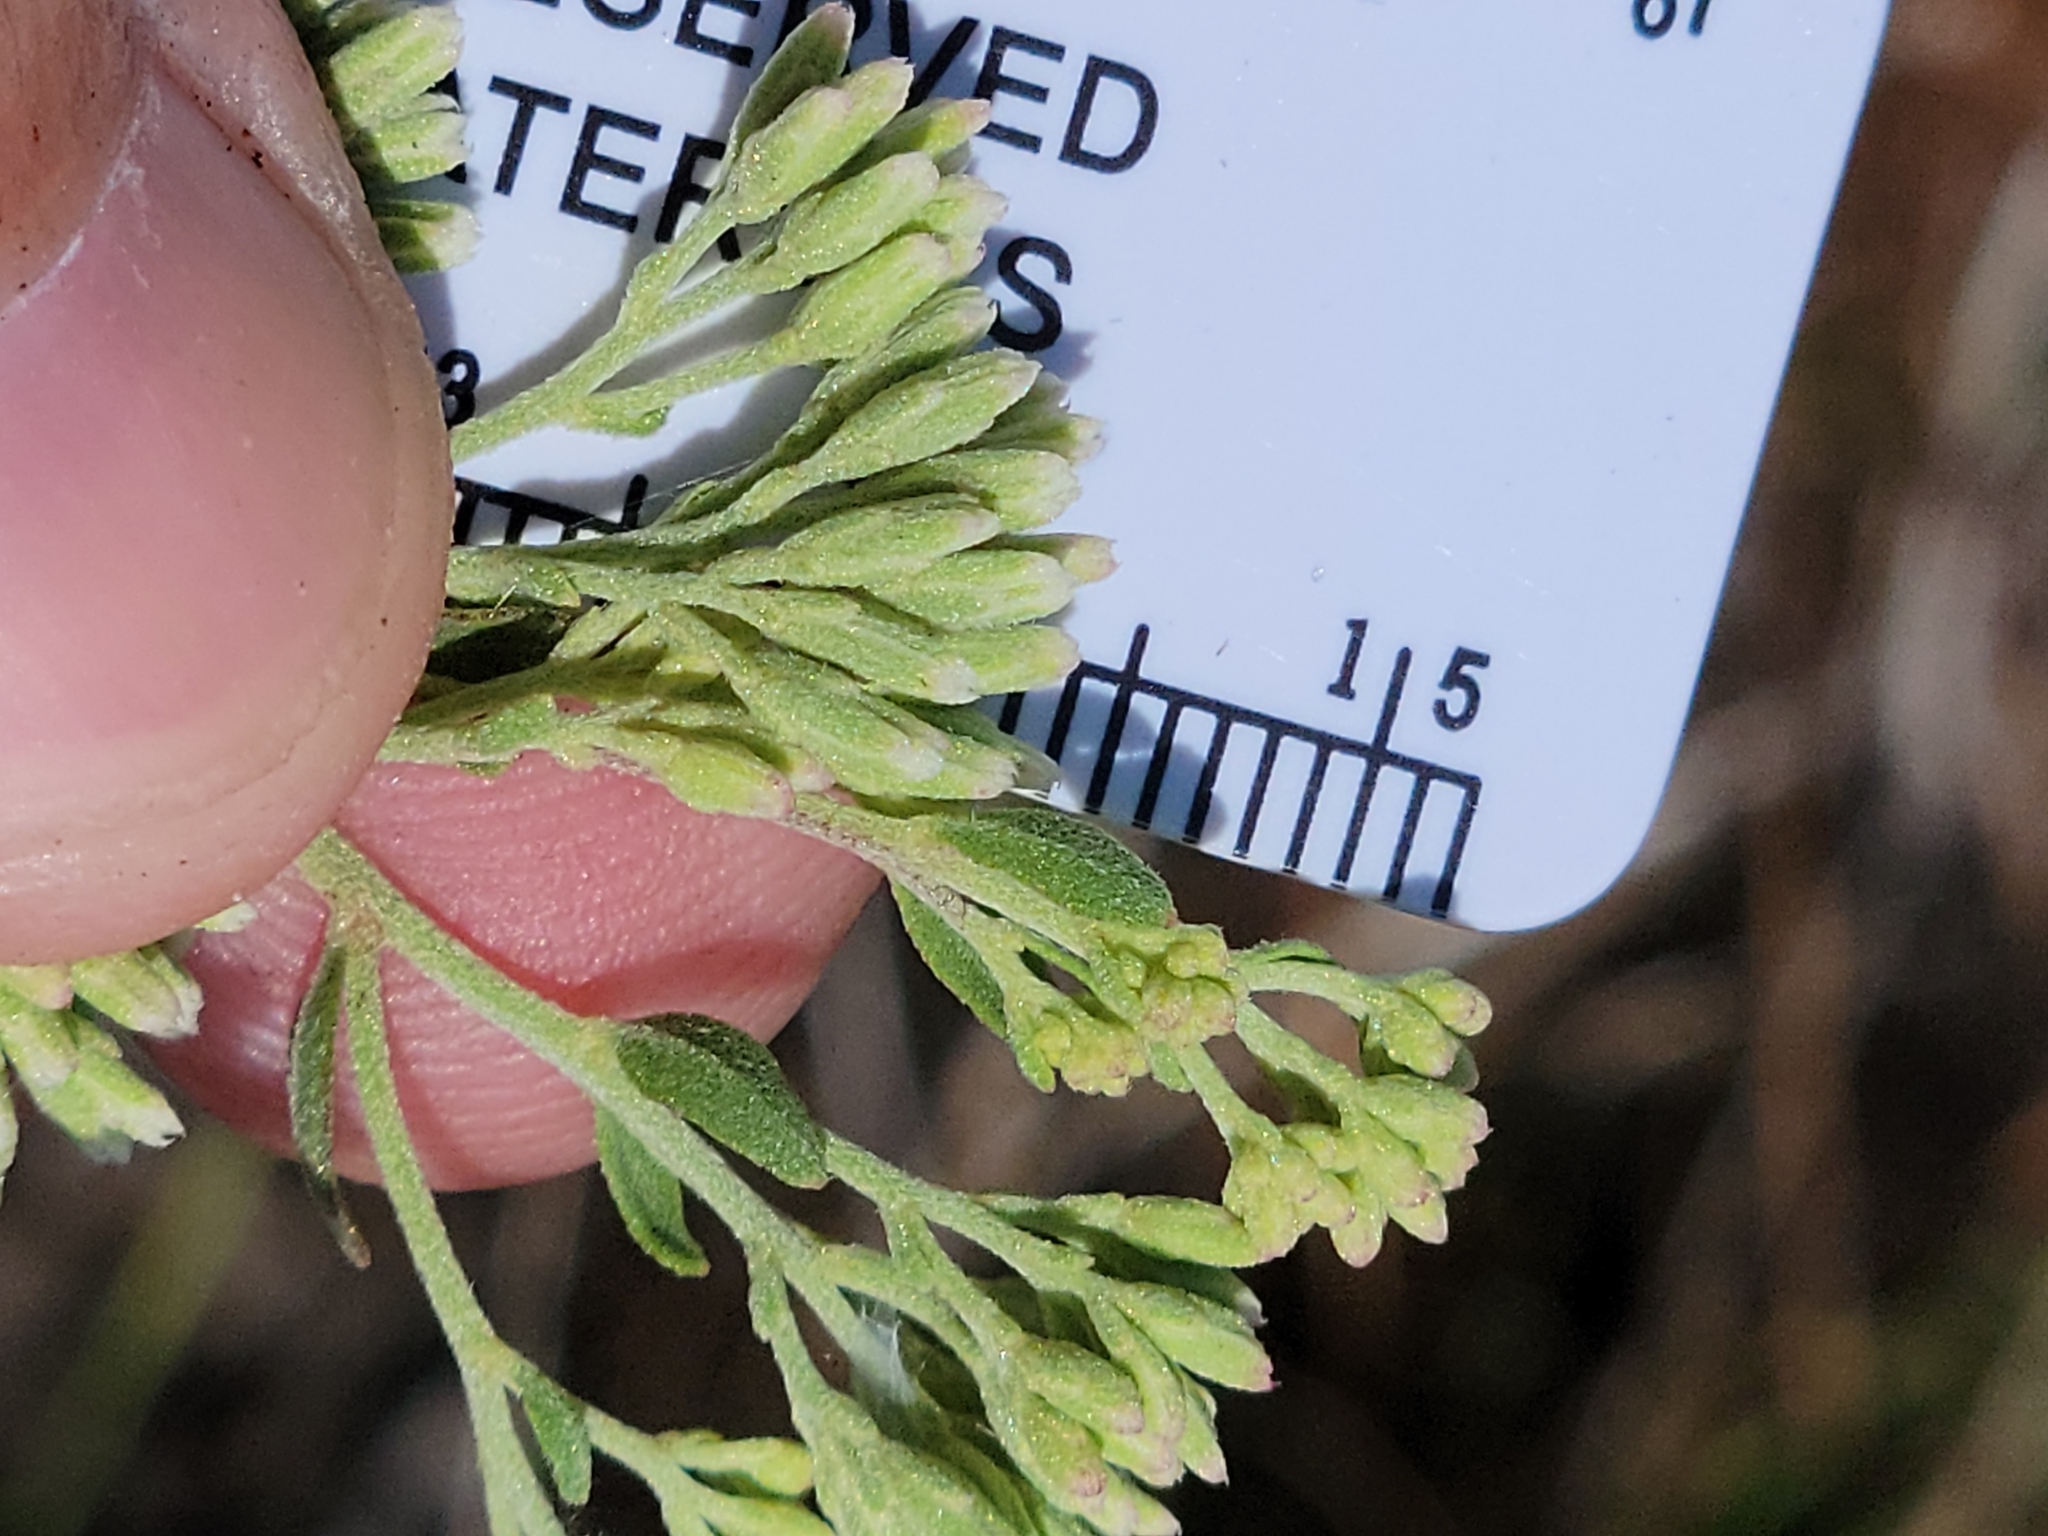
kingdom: Plantae
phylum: Tracheophyta
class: Magnoliopsida
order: Asterales
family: Asteraceae
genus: Eupatorium
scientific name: Eupatorium mohrii
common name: Mohr's thoroughwort
